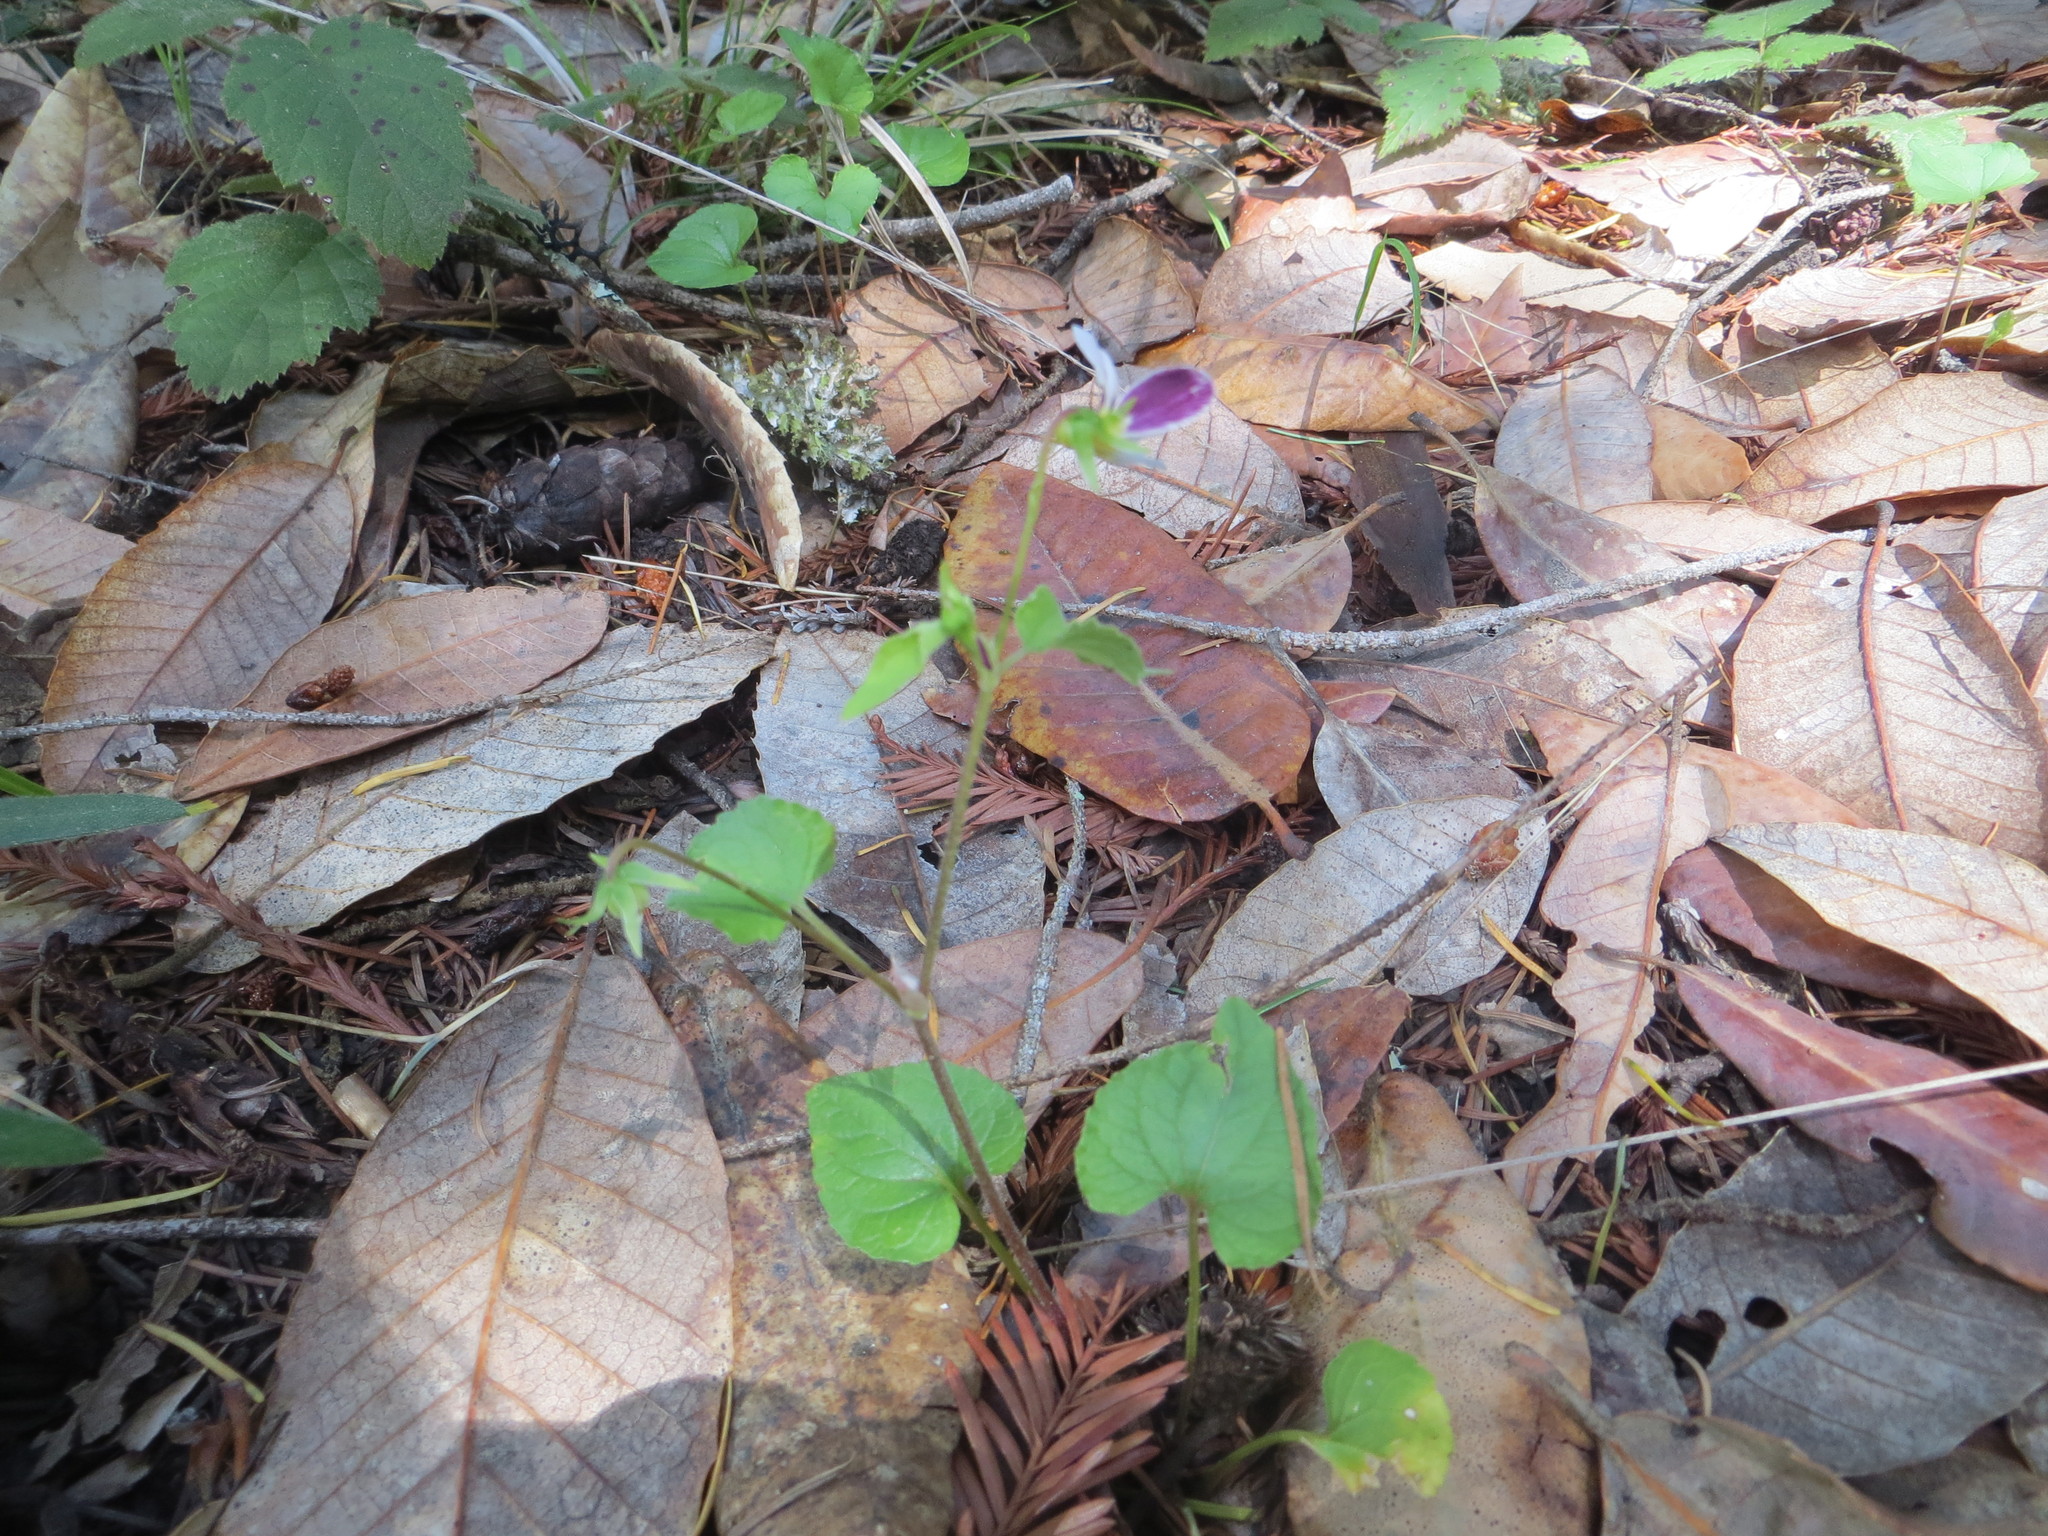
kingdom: Plantae
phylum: Tracheophyta
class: Magnoliopsida
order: Malpighiales
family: Violaceae
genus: Viola
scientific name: Viola ocellata
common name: Western heart's ease
